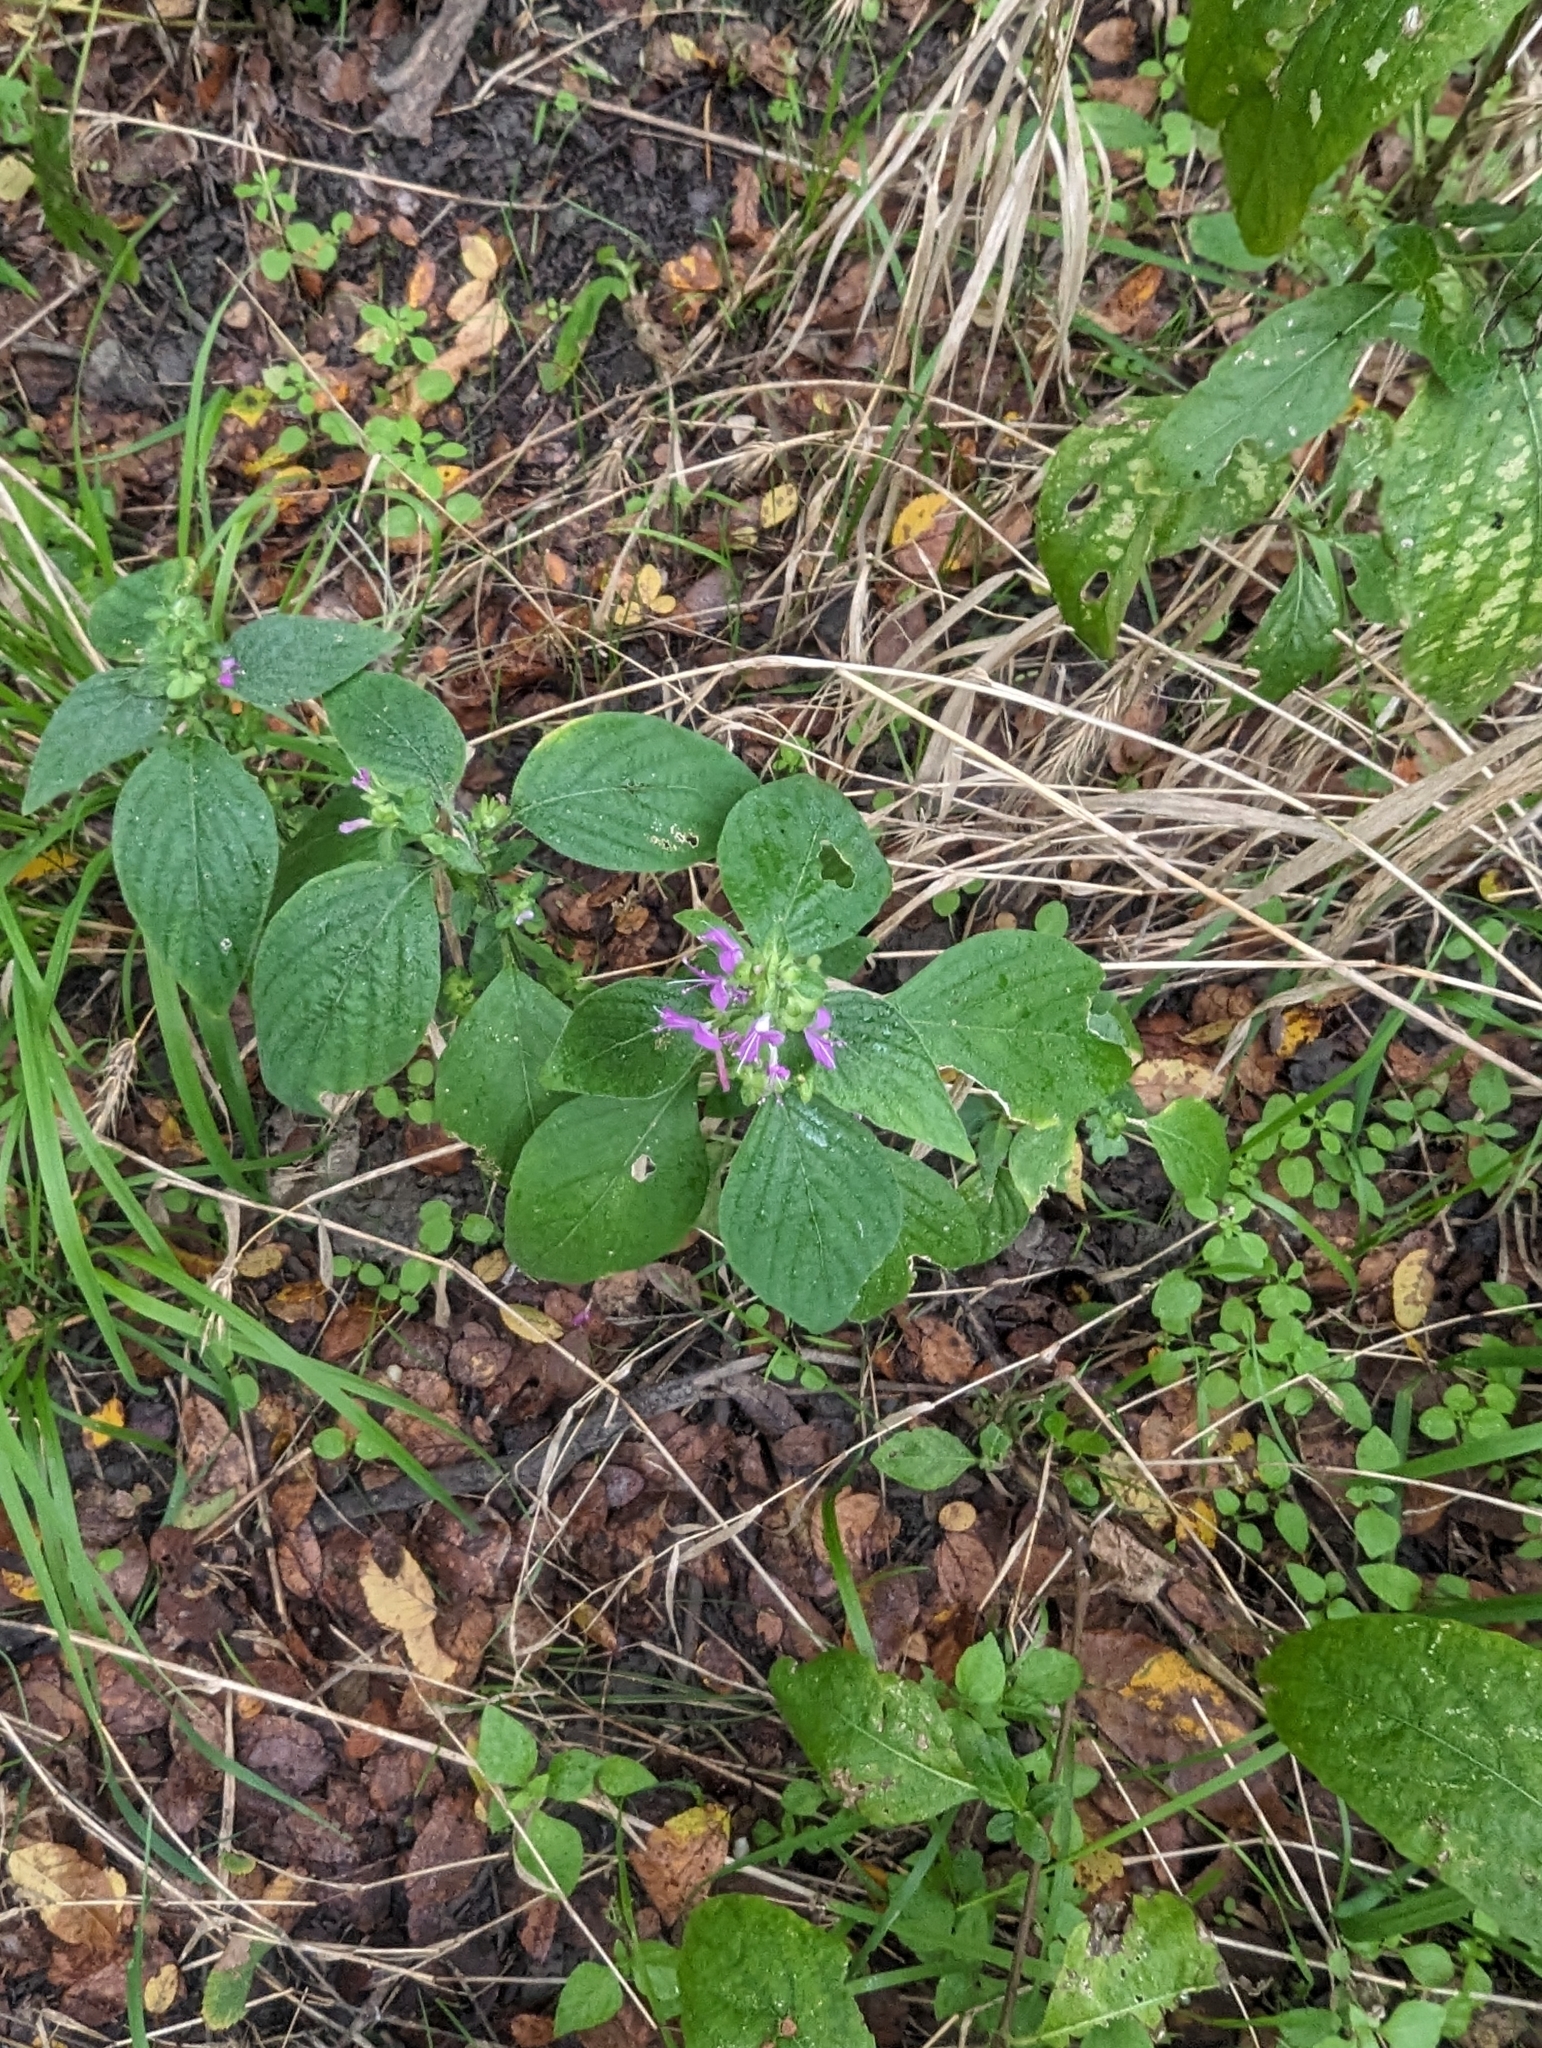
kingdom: Plantae
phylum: Tracheophyta
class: Magnoliopsida
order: Lamiales
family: Acanthaceae
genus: Dicliptera
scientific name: Dicliptera brachiata
